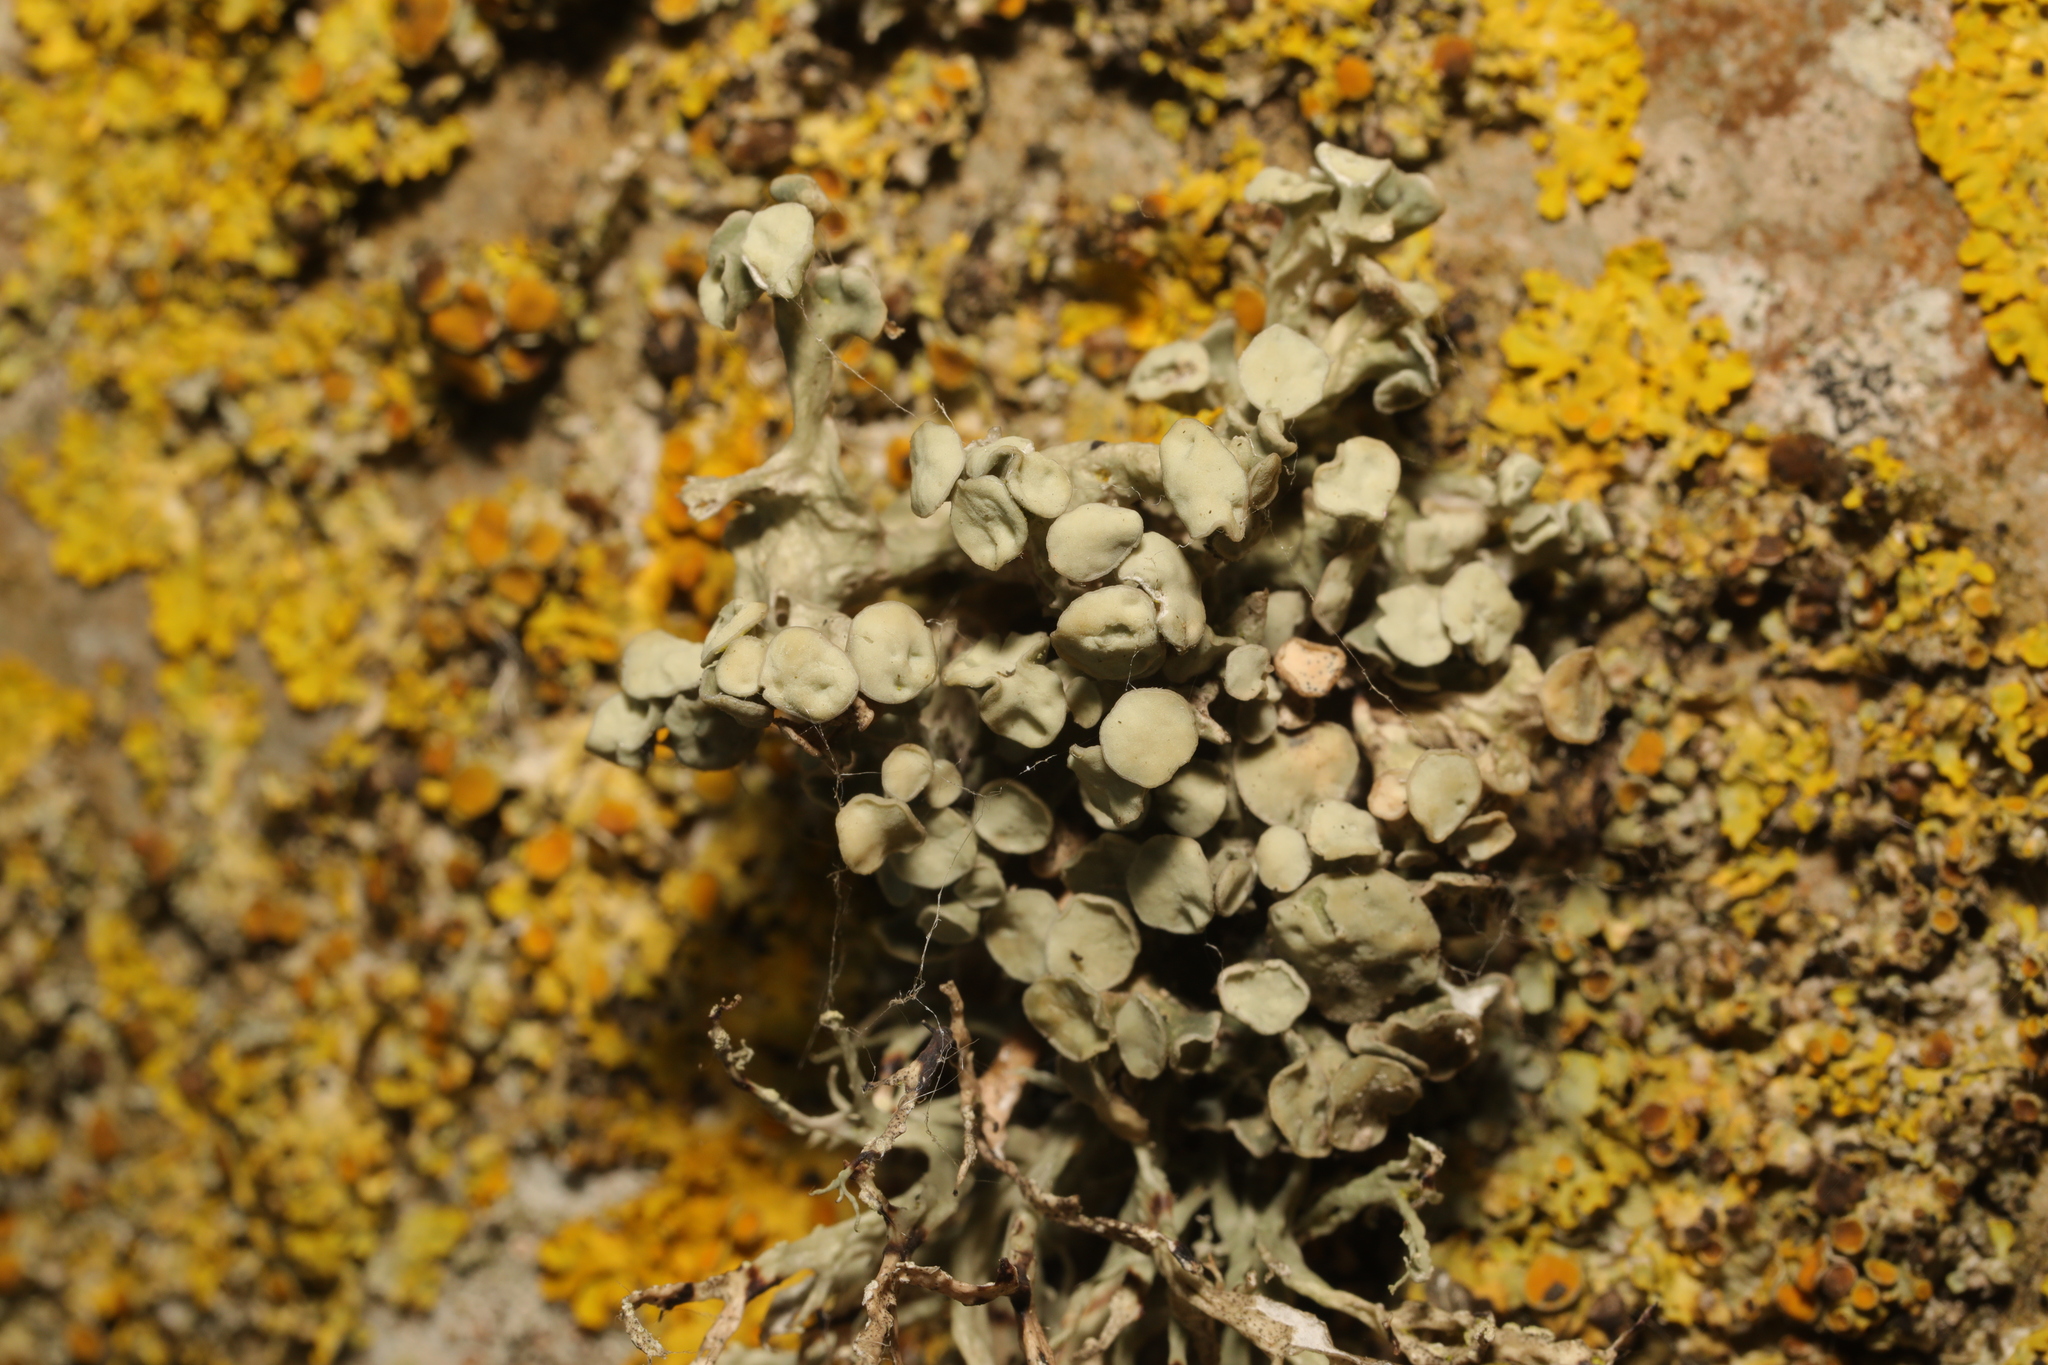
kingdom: Fungi
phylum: Ascomycota
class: Lecanoromycetes
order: Lecanorales
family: Ramalinaceae
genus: Ramalina
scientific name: Ramalina fastigiata
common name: Dotted ribbon lichen
